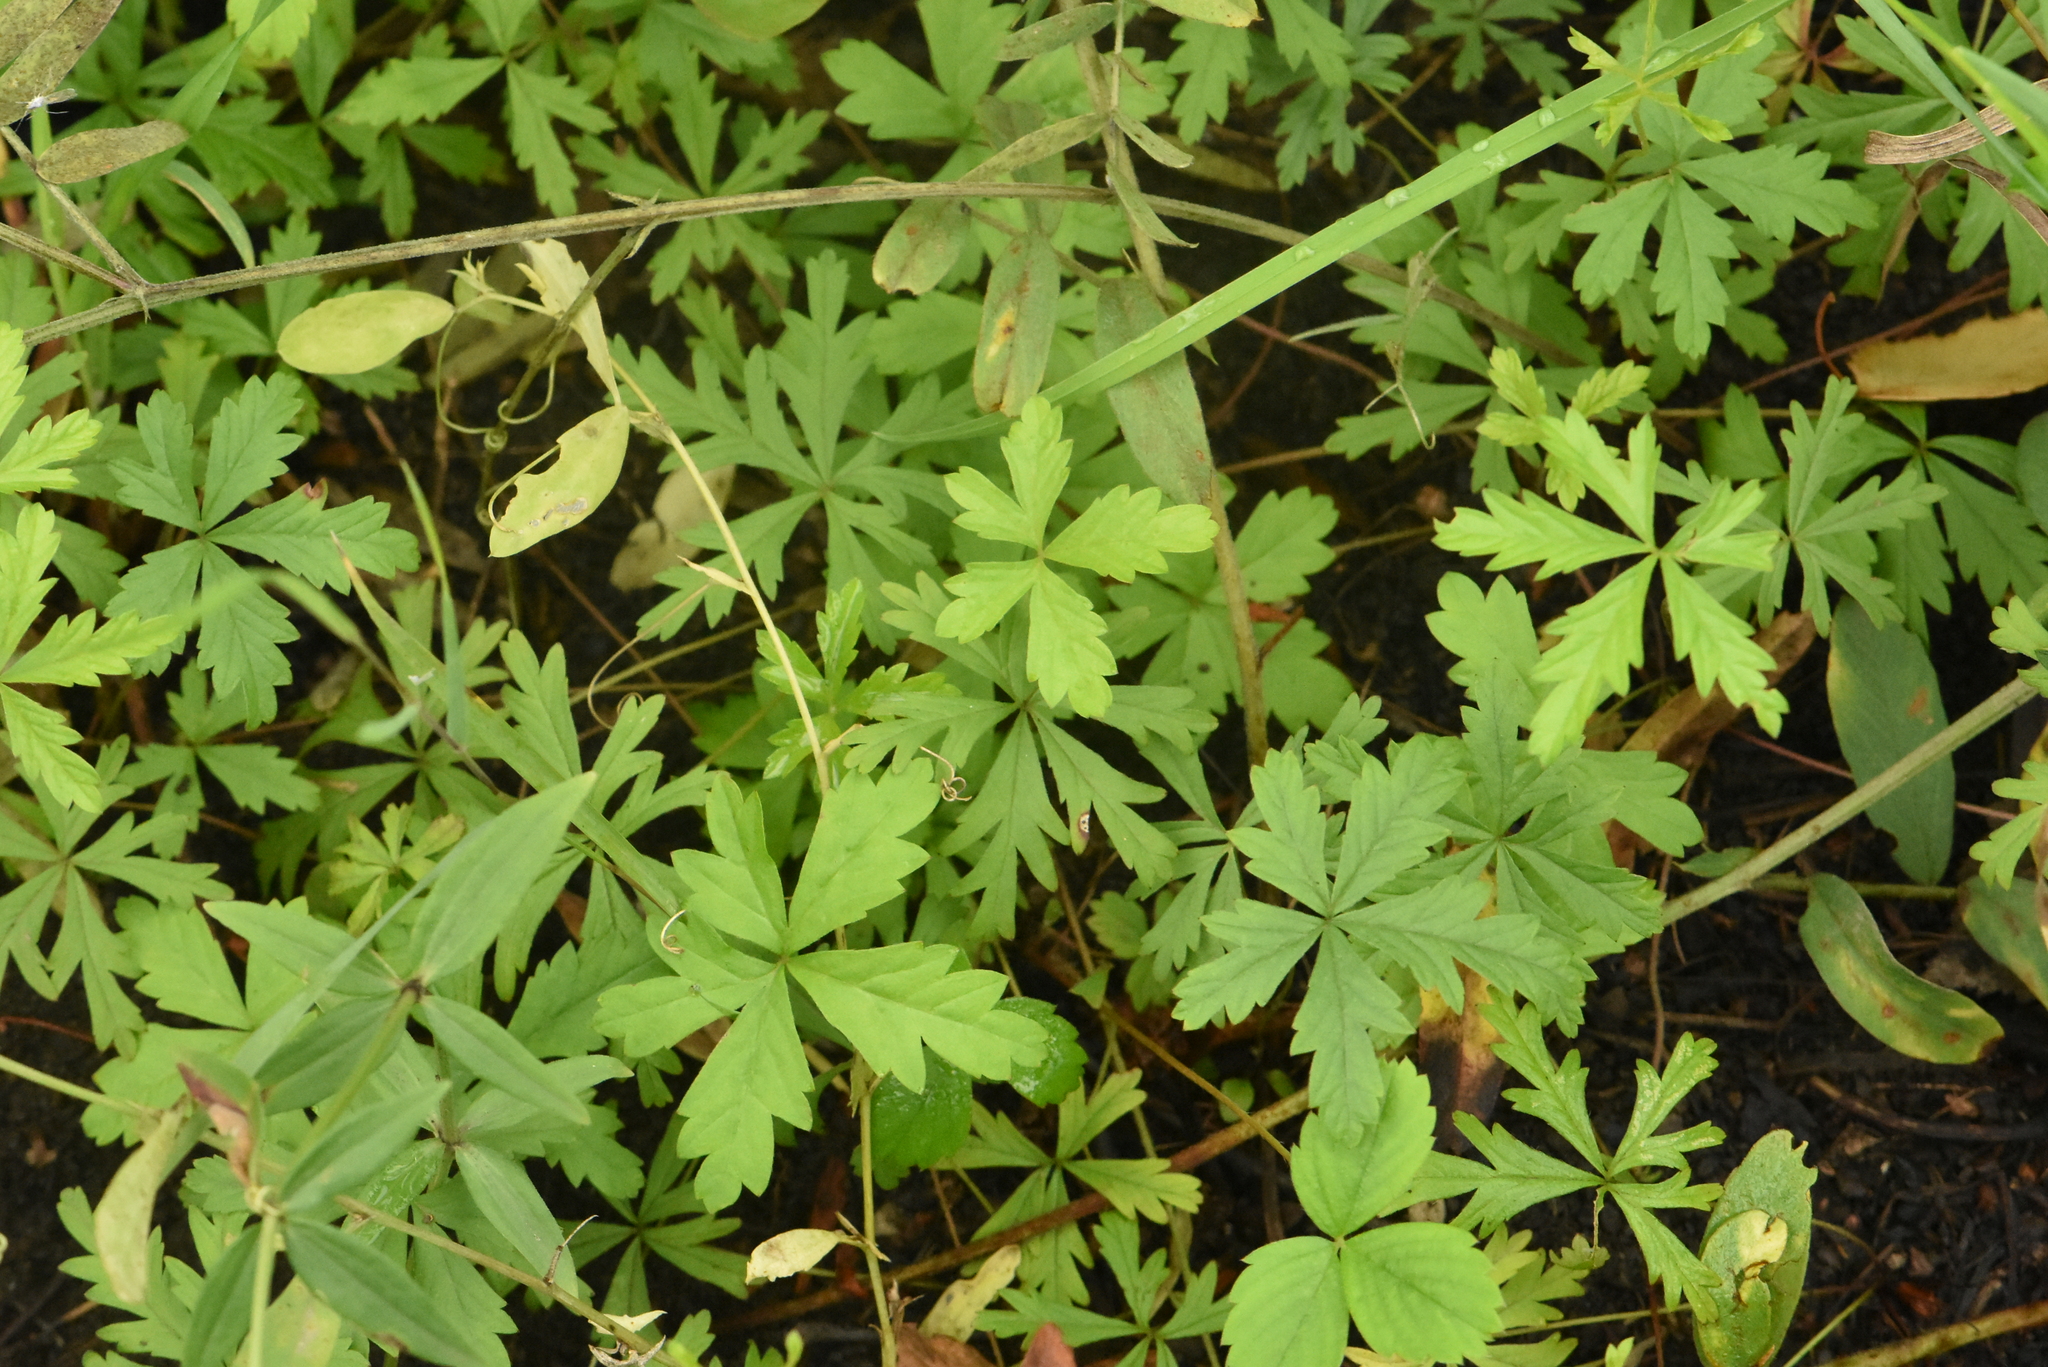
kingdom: Plantae
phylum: Tracheophyta
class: Magnoliopsida
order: Rosales
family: Rosaceae
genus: Potentilla
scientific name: Potentilla flagellaris
